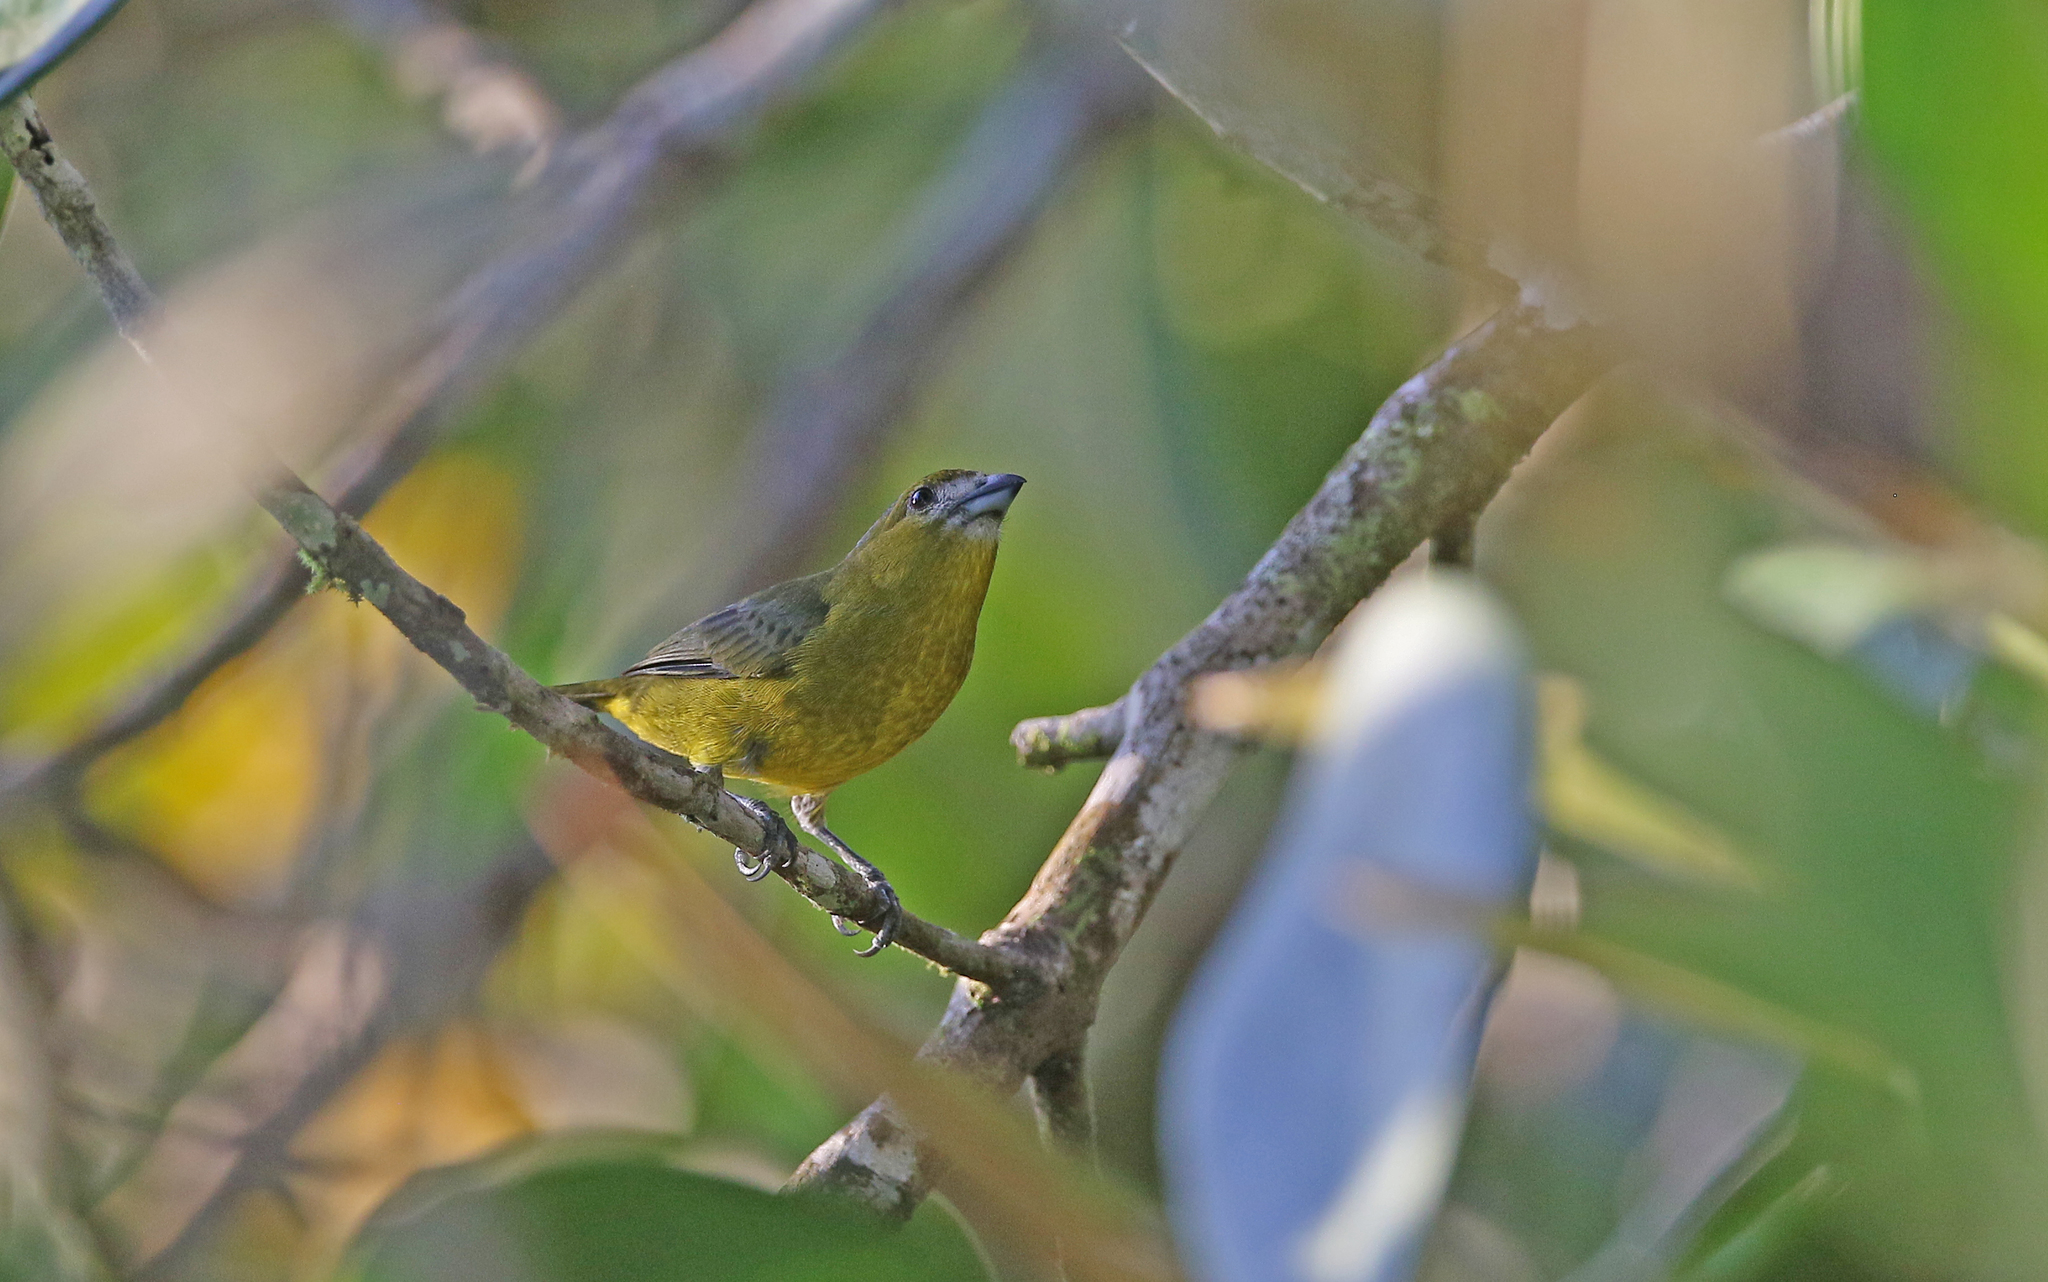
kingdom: Animalia
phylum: Chordata
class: Aves
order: Passeriformes
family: Fringillidae
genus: Euphonia
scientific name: Euphonia chrysopasta
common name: White-lored euphonia
